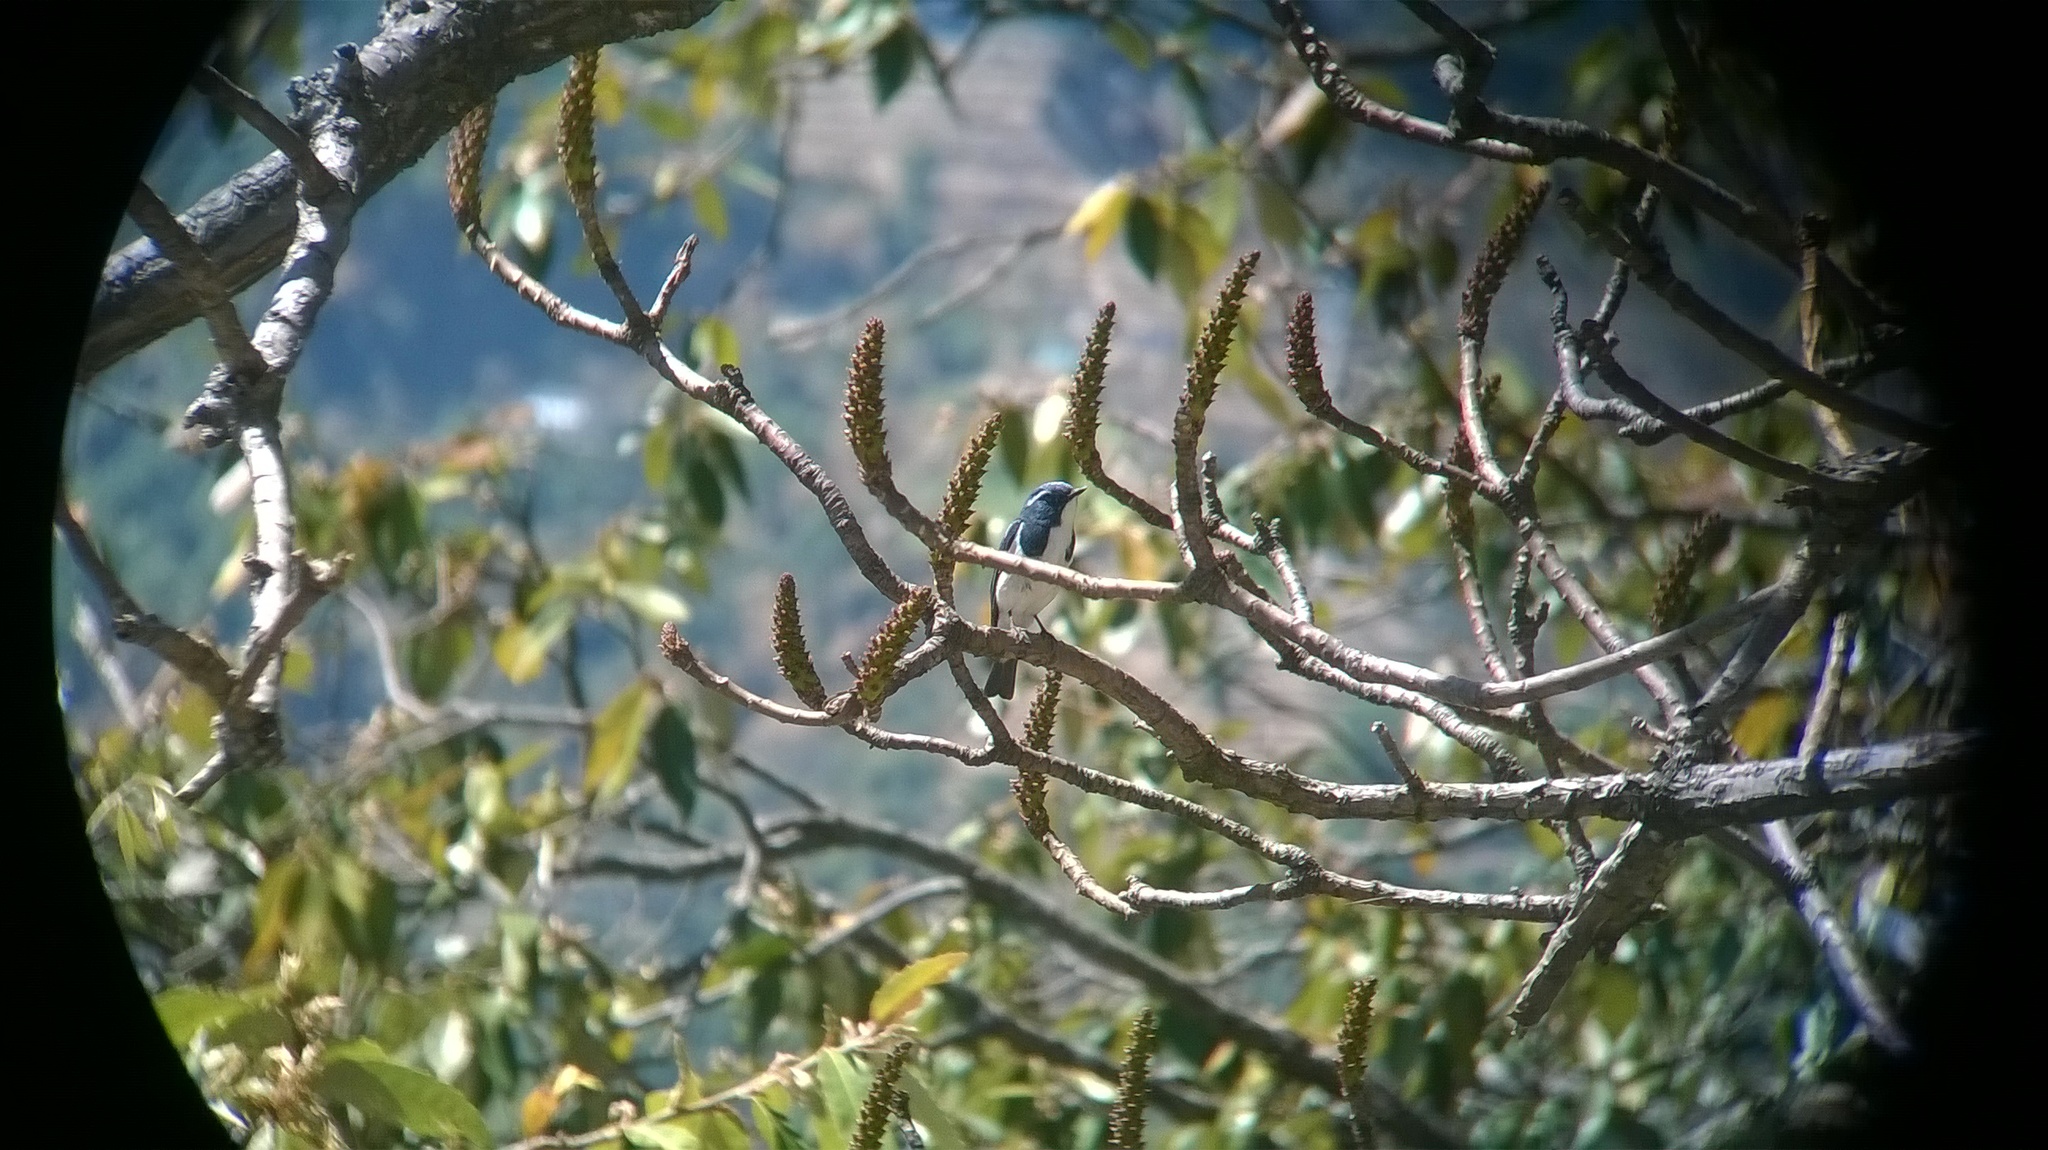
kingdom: Animalia
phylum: Chordata
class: Aves
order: Passeriformes
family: Muscicapidae
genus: Ficedula
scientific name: Ficedula superciliaris
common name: Ultramarine flycatcher
